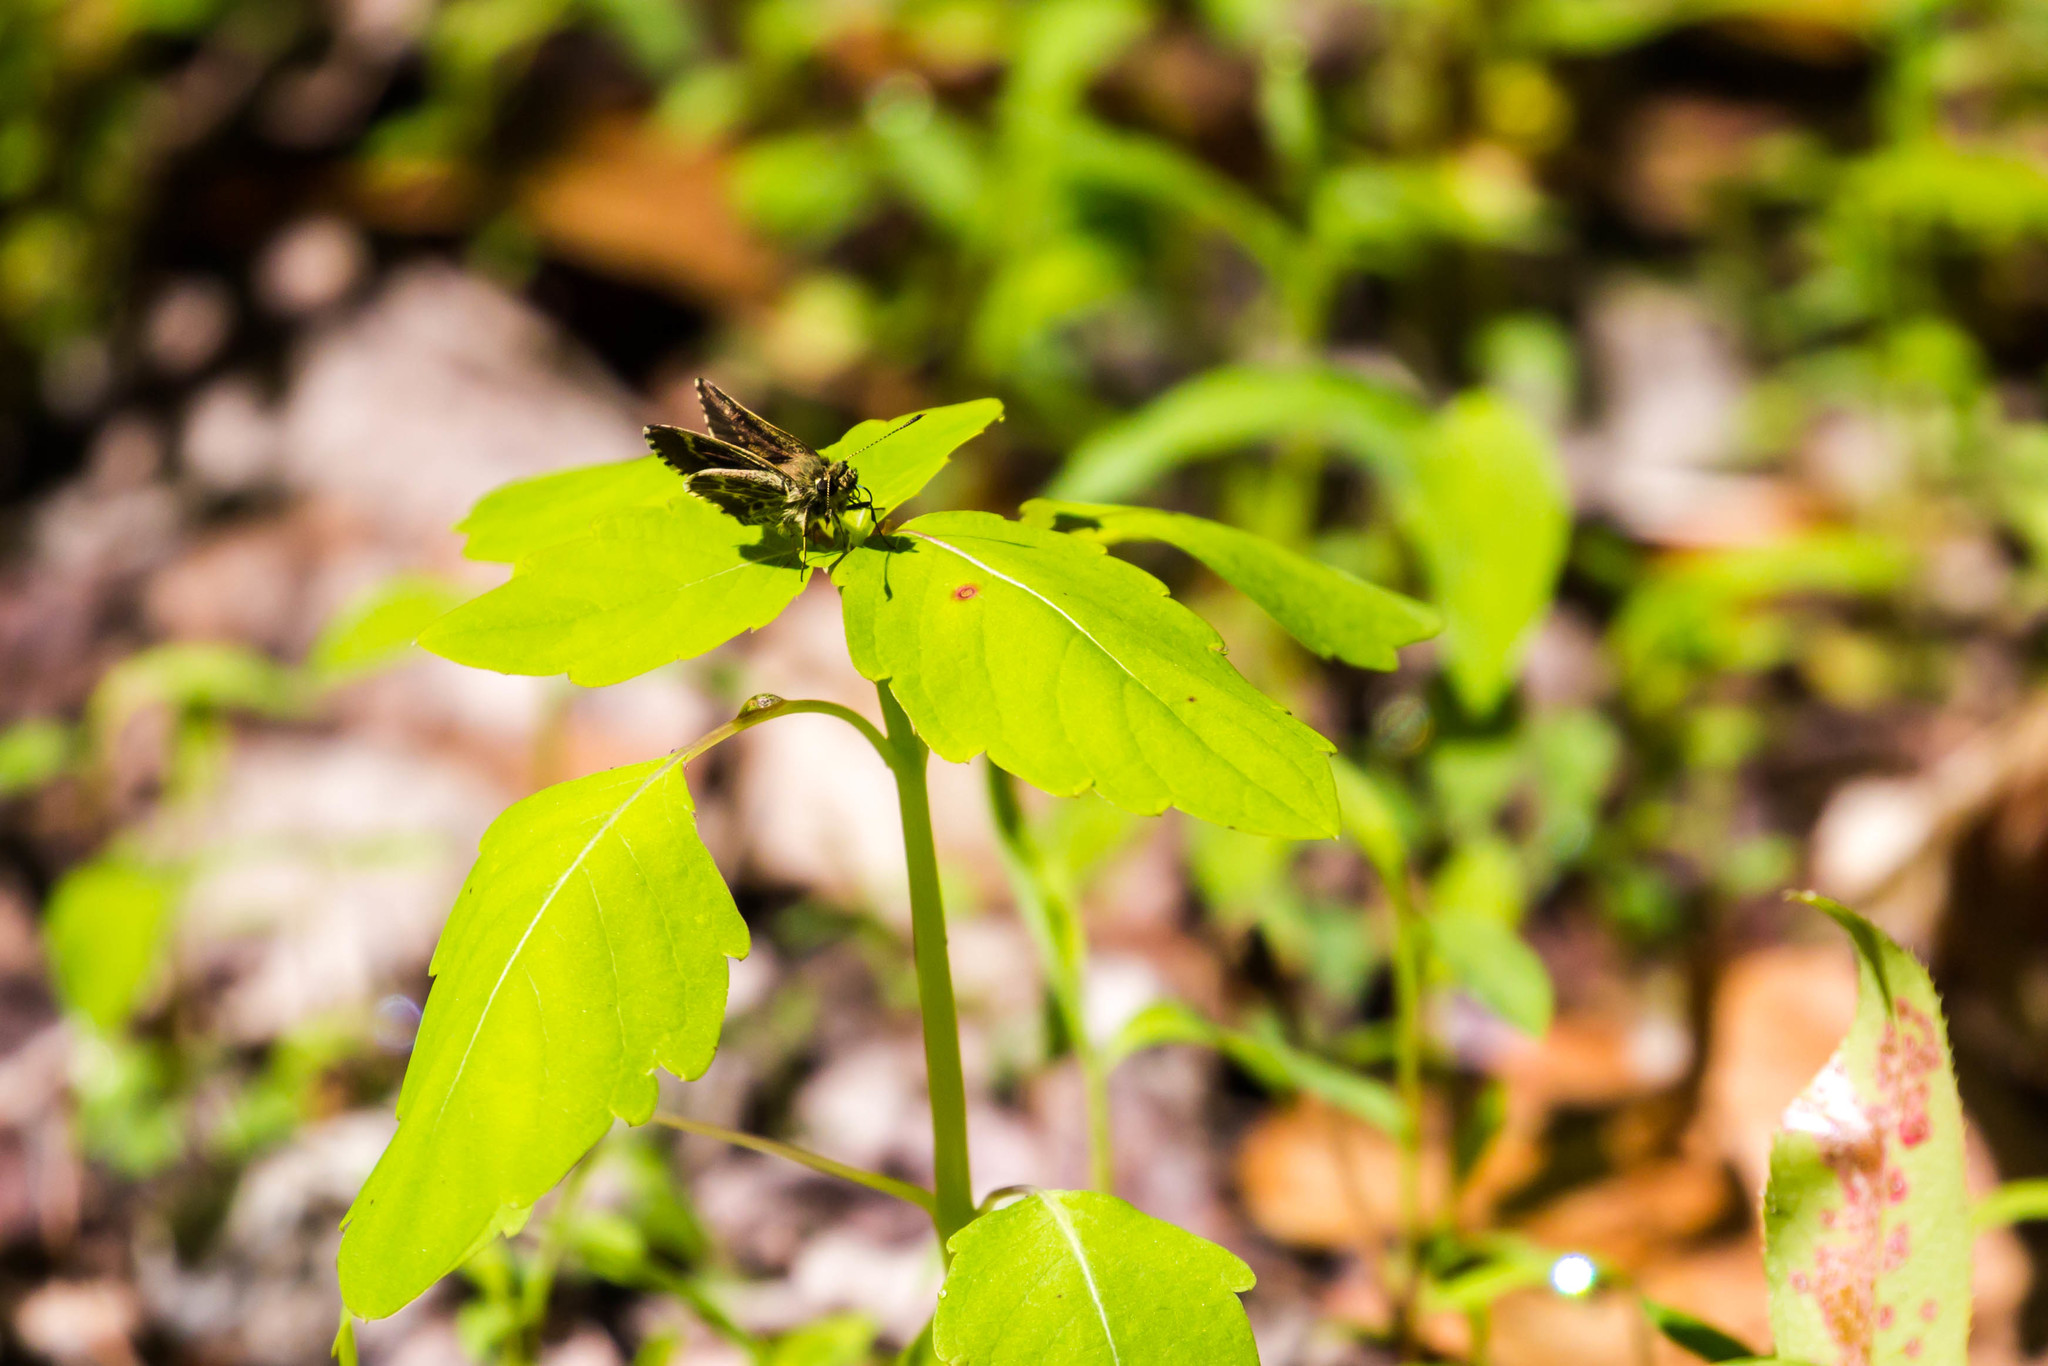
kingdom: Animalia
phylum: Arthropoda
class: Insecta
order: Lepidoptera
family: Hesperiidae
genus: Mastor
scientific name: Mastor aesculapius
